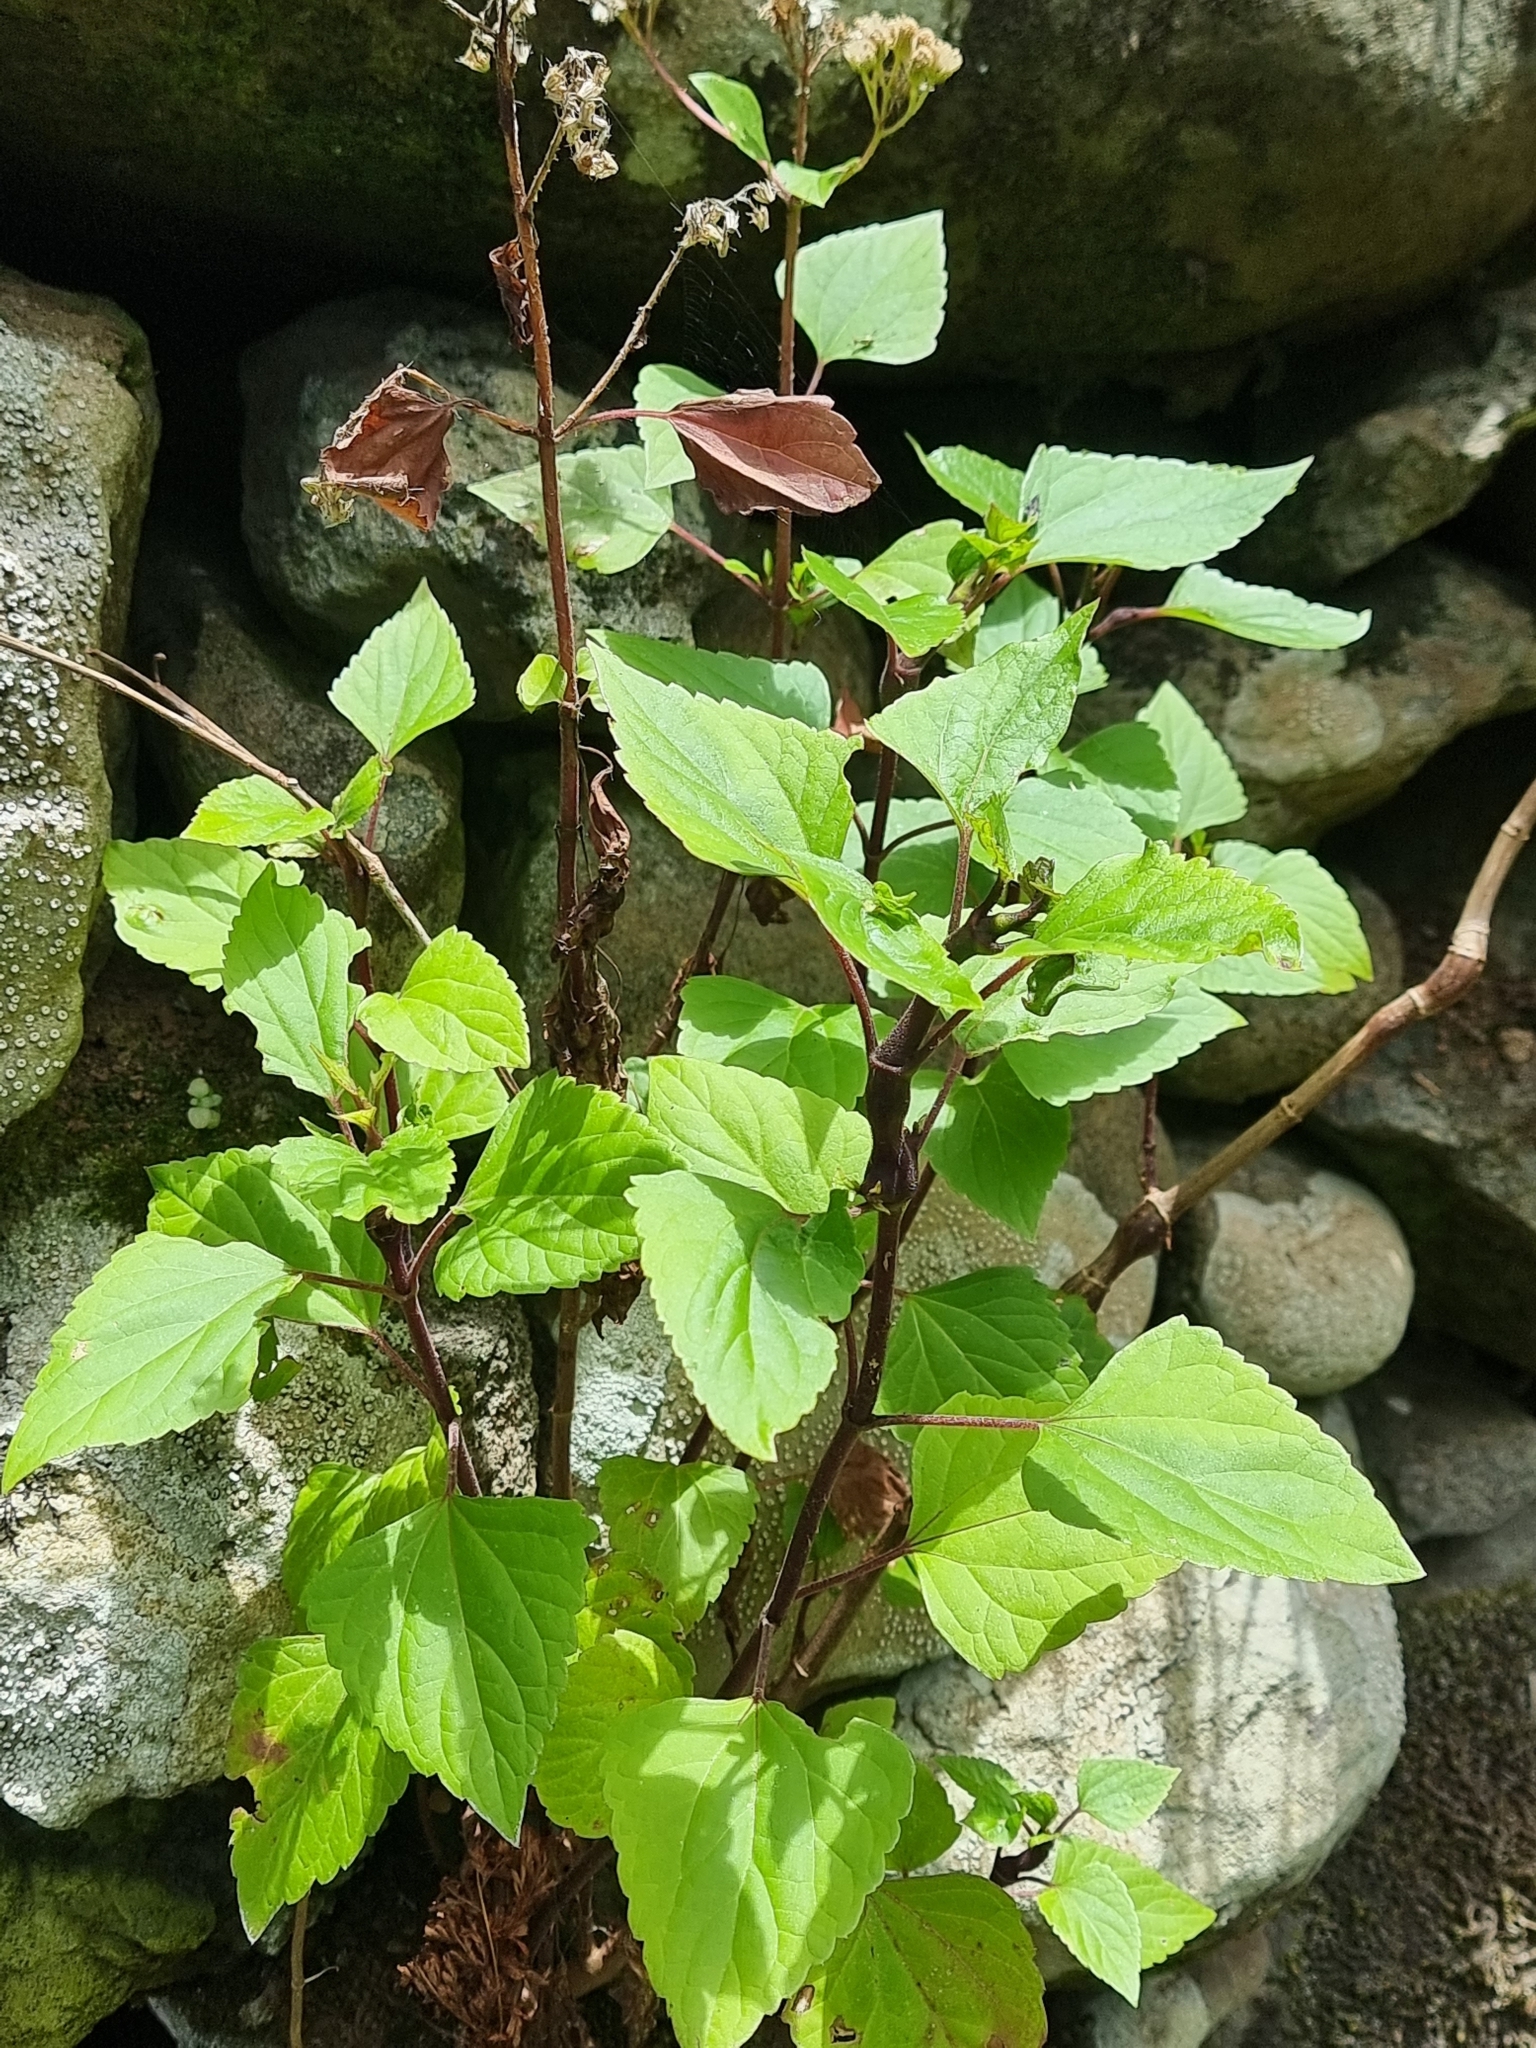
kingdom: Plantae
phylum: Tracheophyta
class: Magnoliopsida
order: Asterales
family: Asteraceae
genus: Ageratina
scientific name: Ageratina adenophora
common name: Sticky snakeroot
